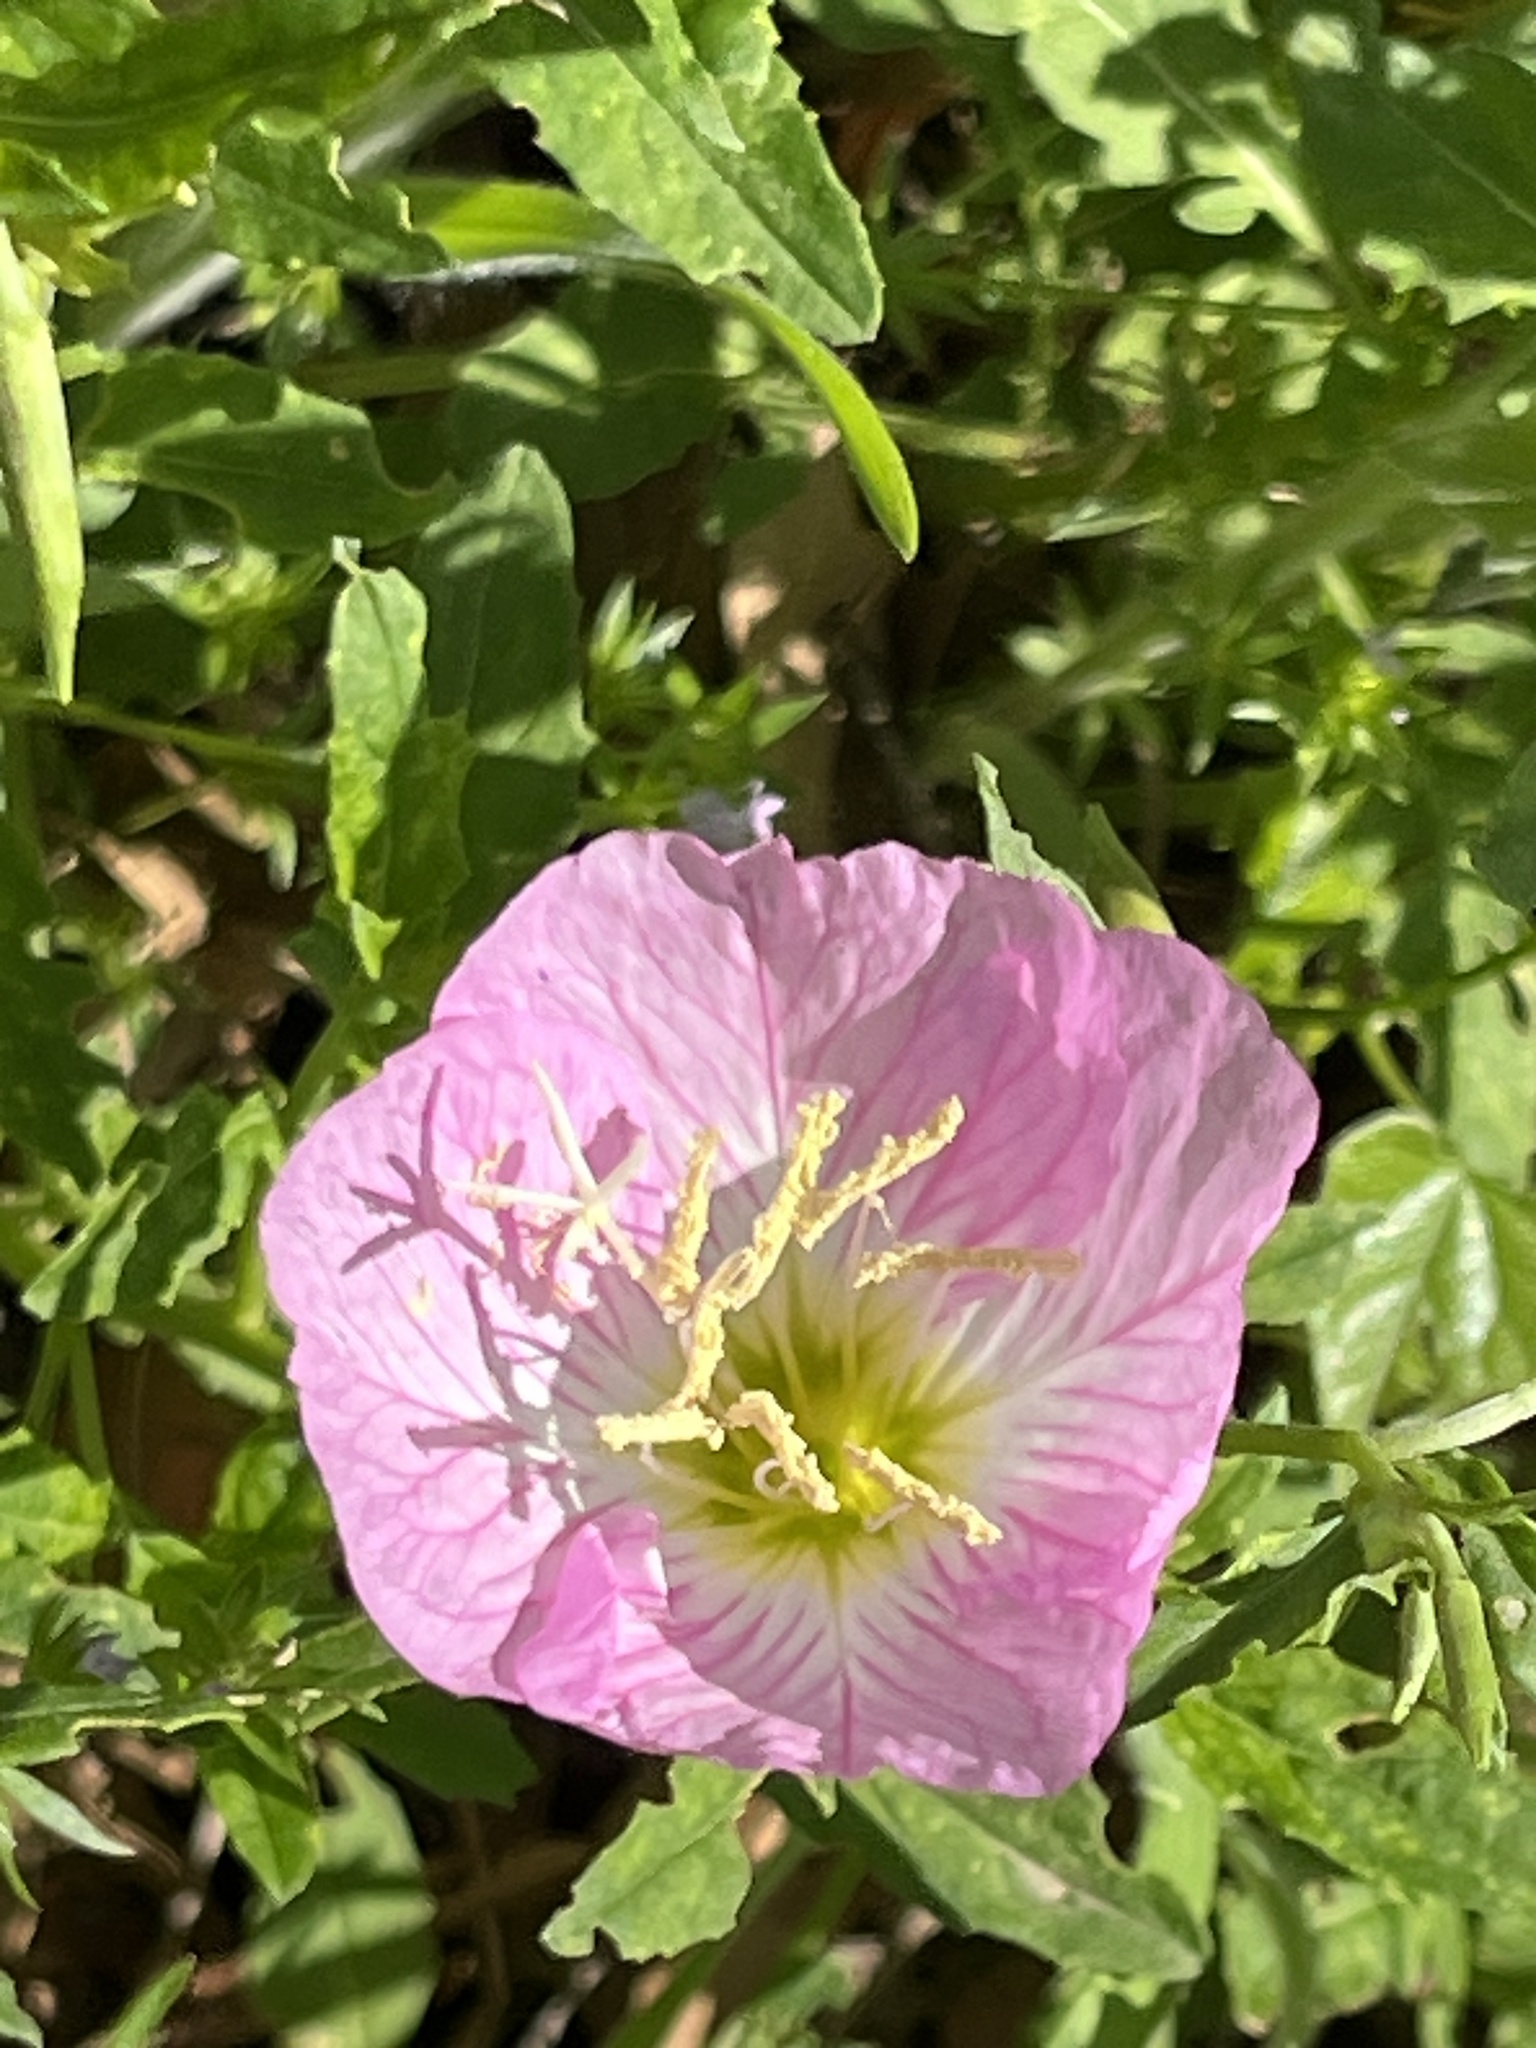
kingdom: Plantae
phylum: Tracheophyta
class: Magnoliopsida
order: Myrtales
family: Onagraceae
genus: Oenothera
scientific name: Oenothera speciosa
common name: White evening-primrose
